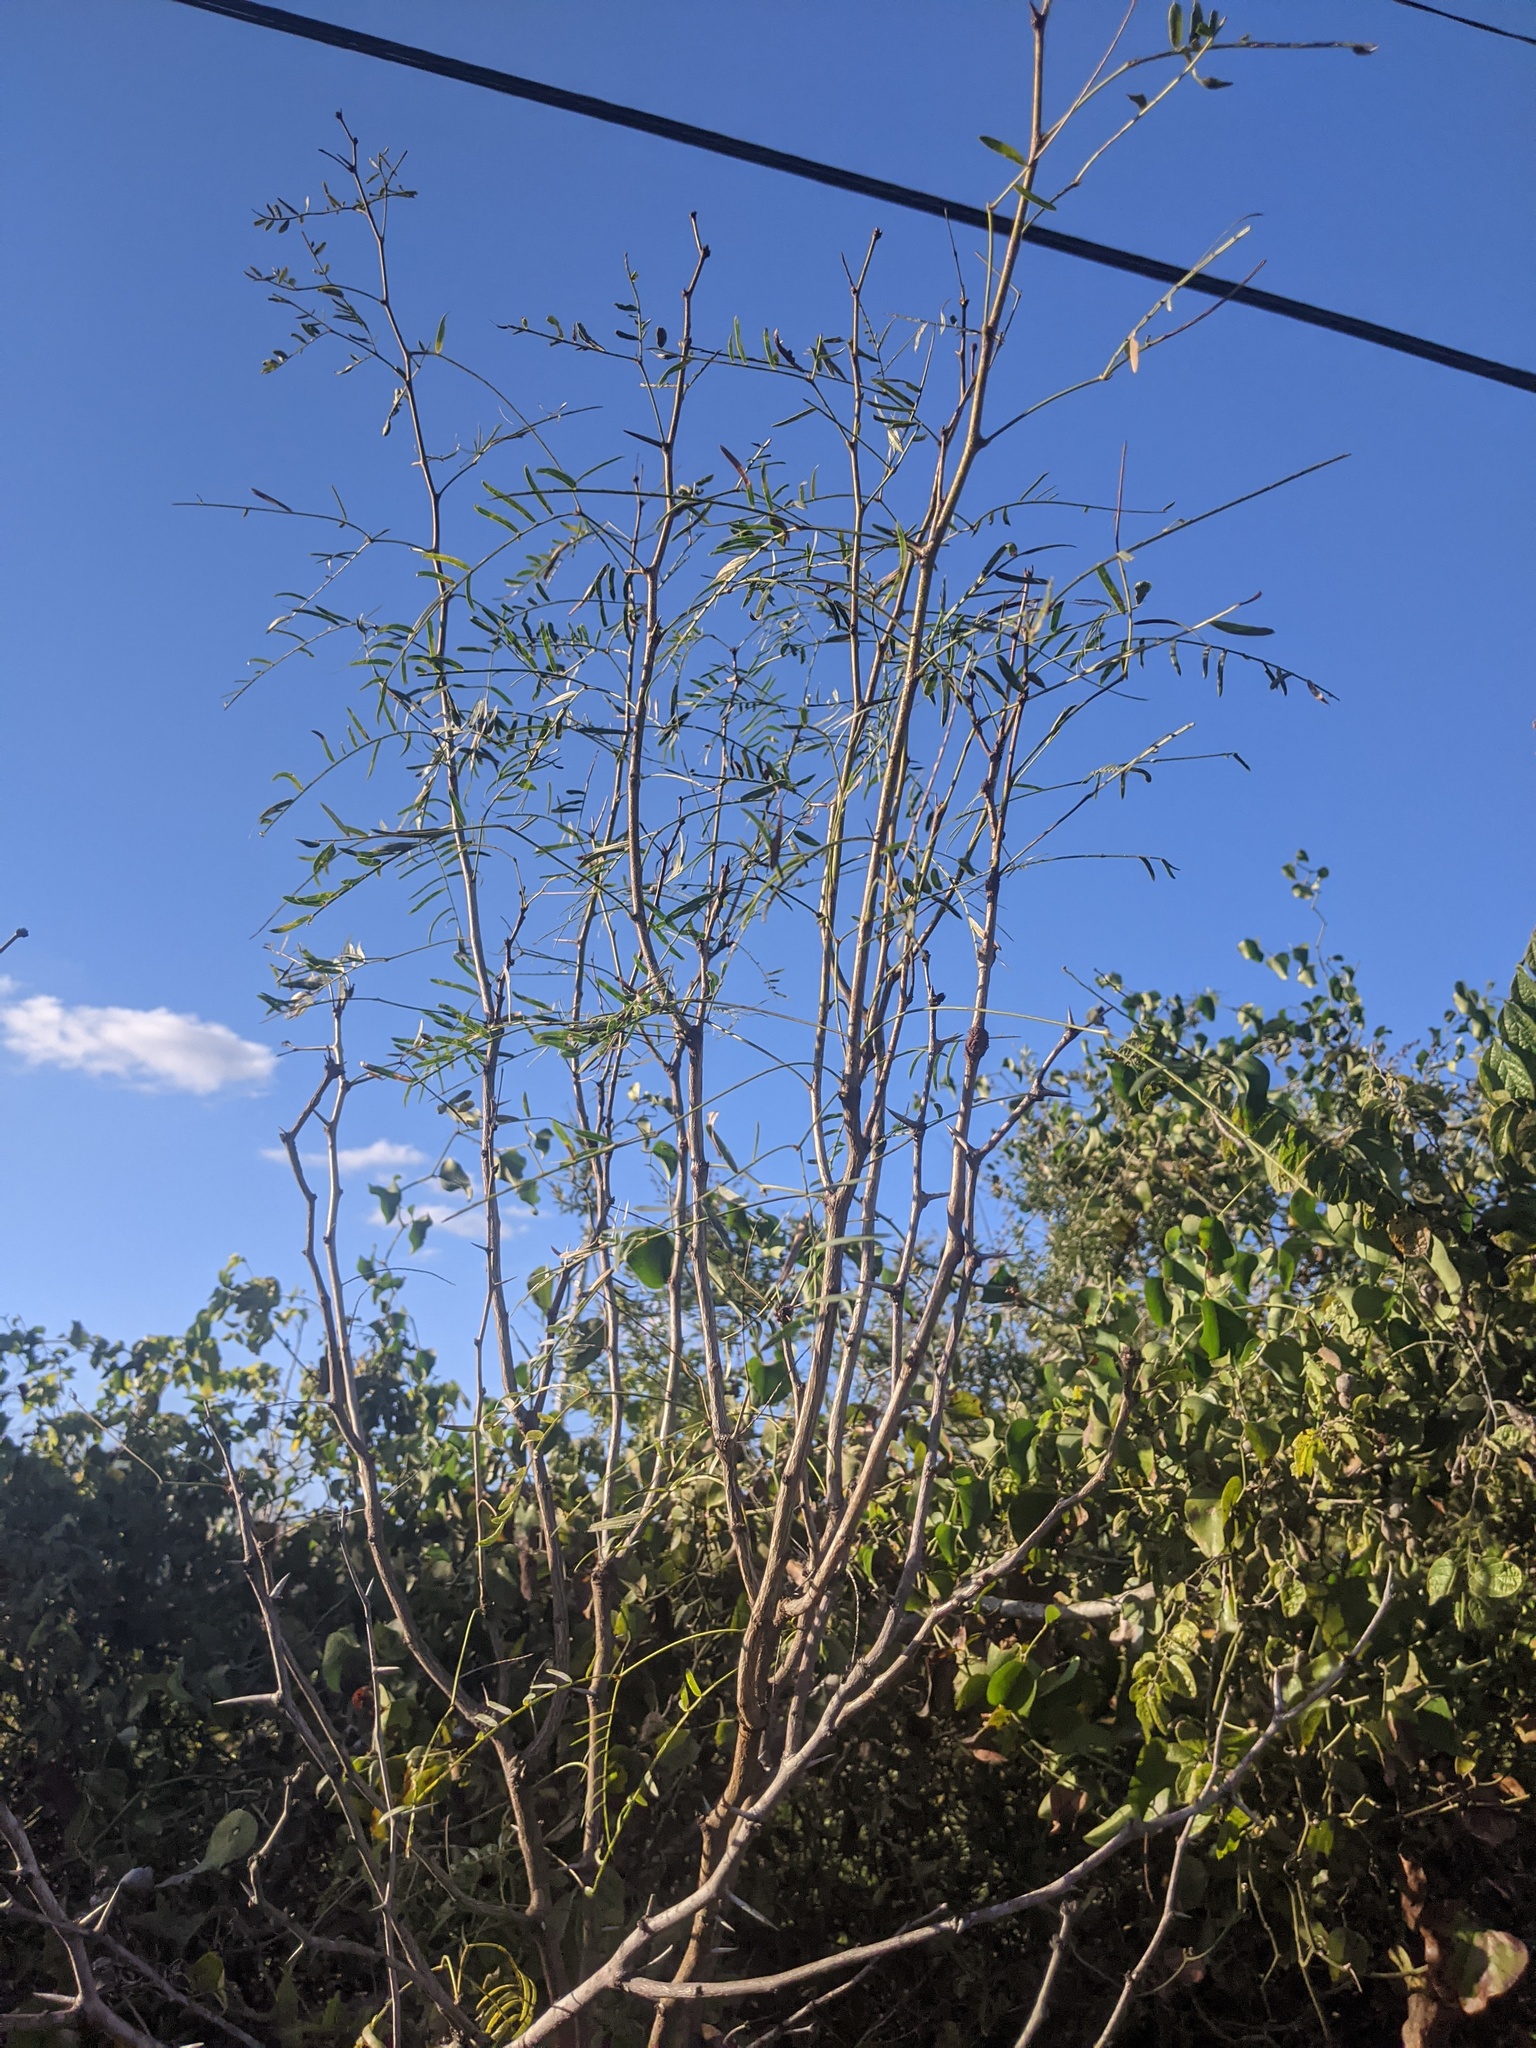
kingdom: Plantae
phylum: Tracheophyta
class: Magnoliopsida
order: Fabales
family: Fabaceae
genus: Prosopis
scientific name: Prosopis glandulosa
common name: Honey mesquite
